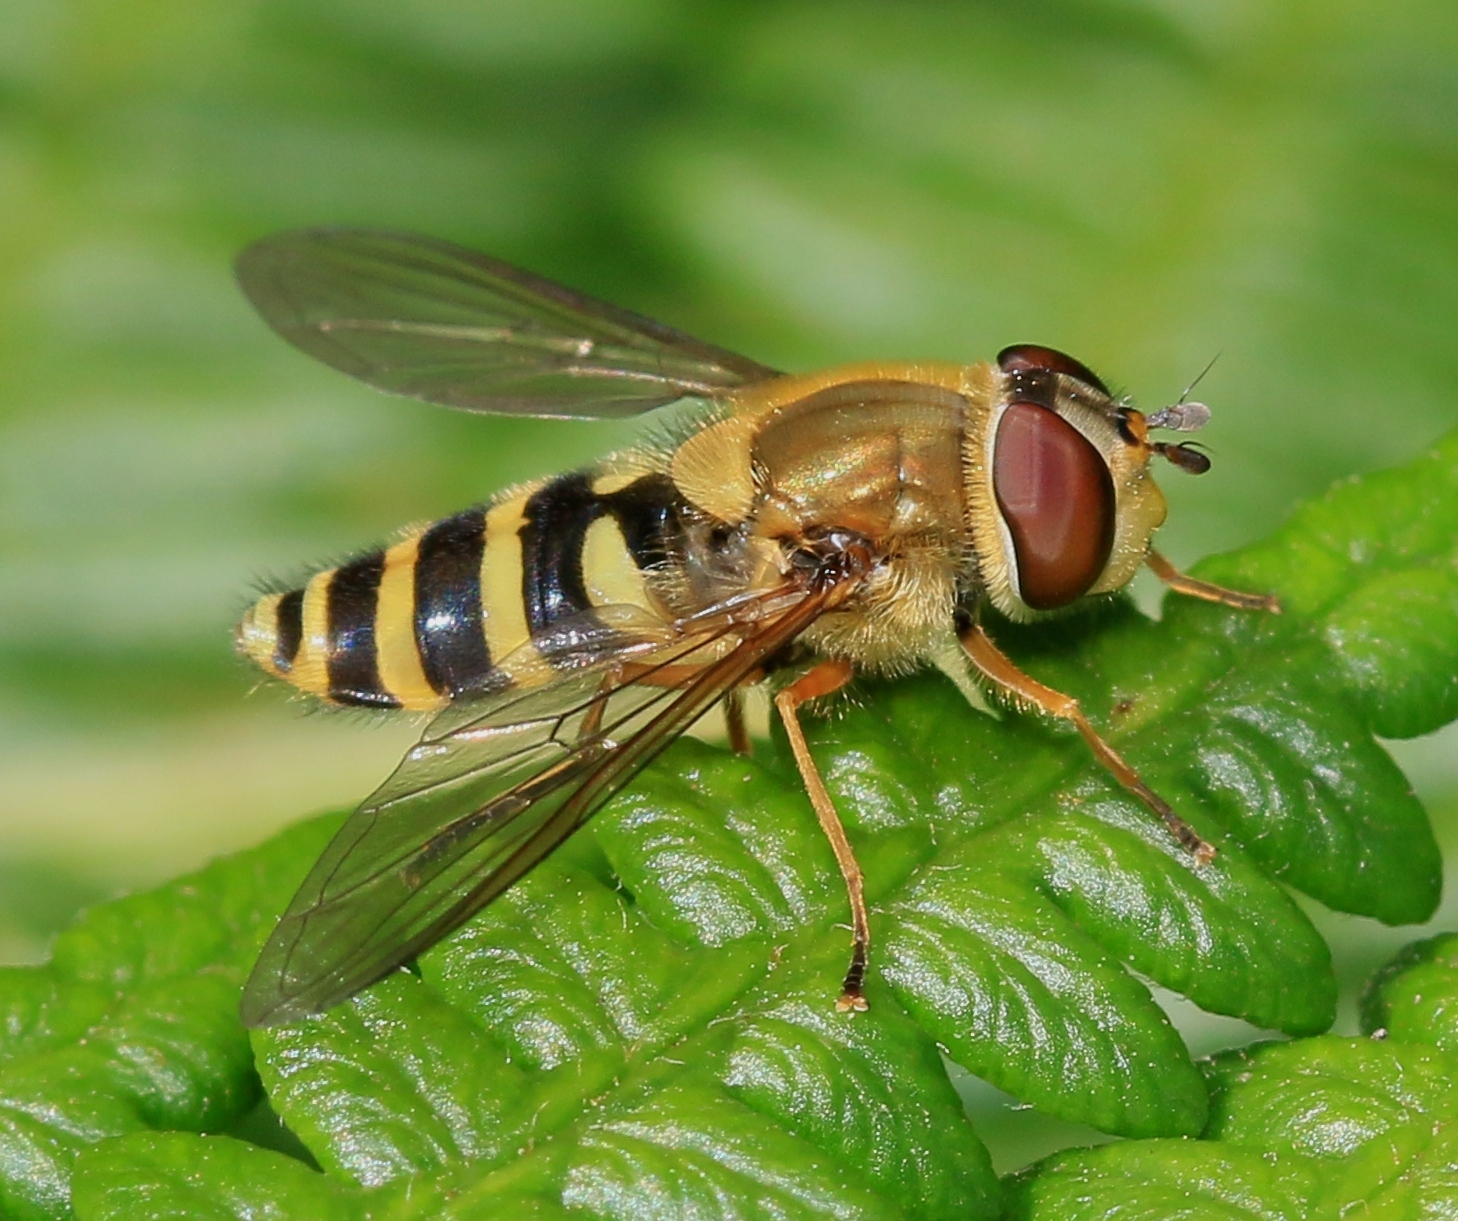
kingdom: Animalia
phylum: Arthropoda
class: Insecta
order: Diptera
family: Syrphidae
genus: Syrphus
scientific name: Syrphus ribesii
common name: Common flower fly
